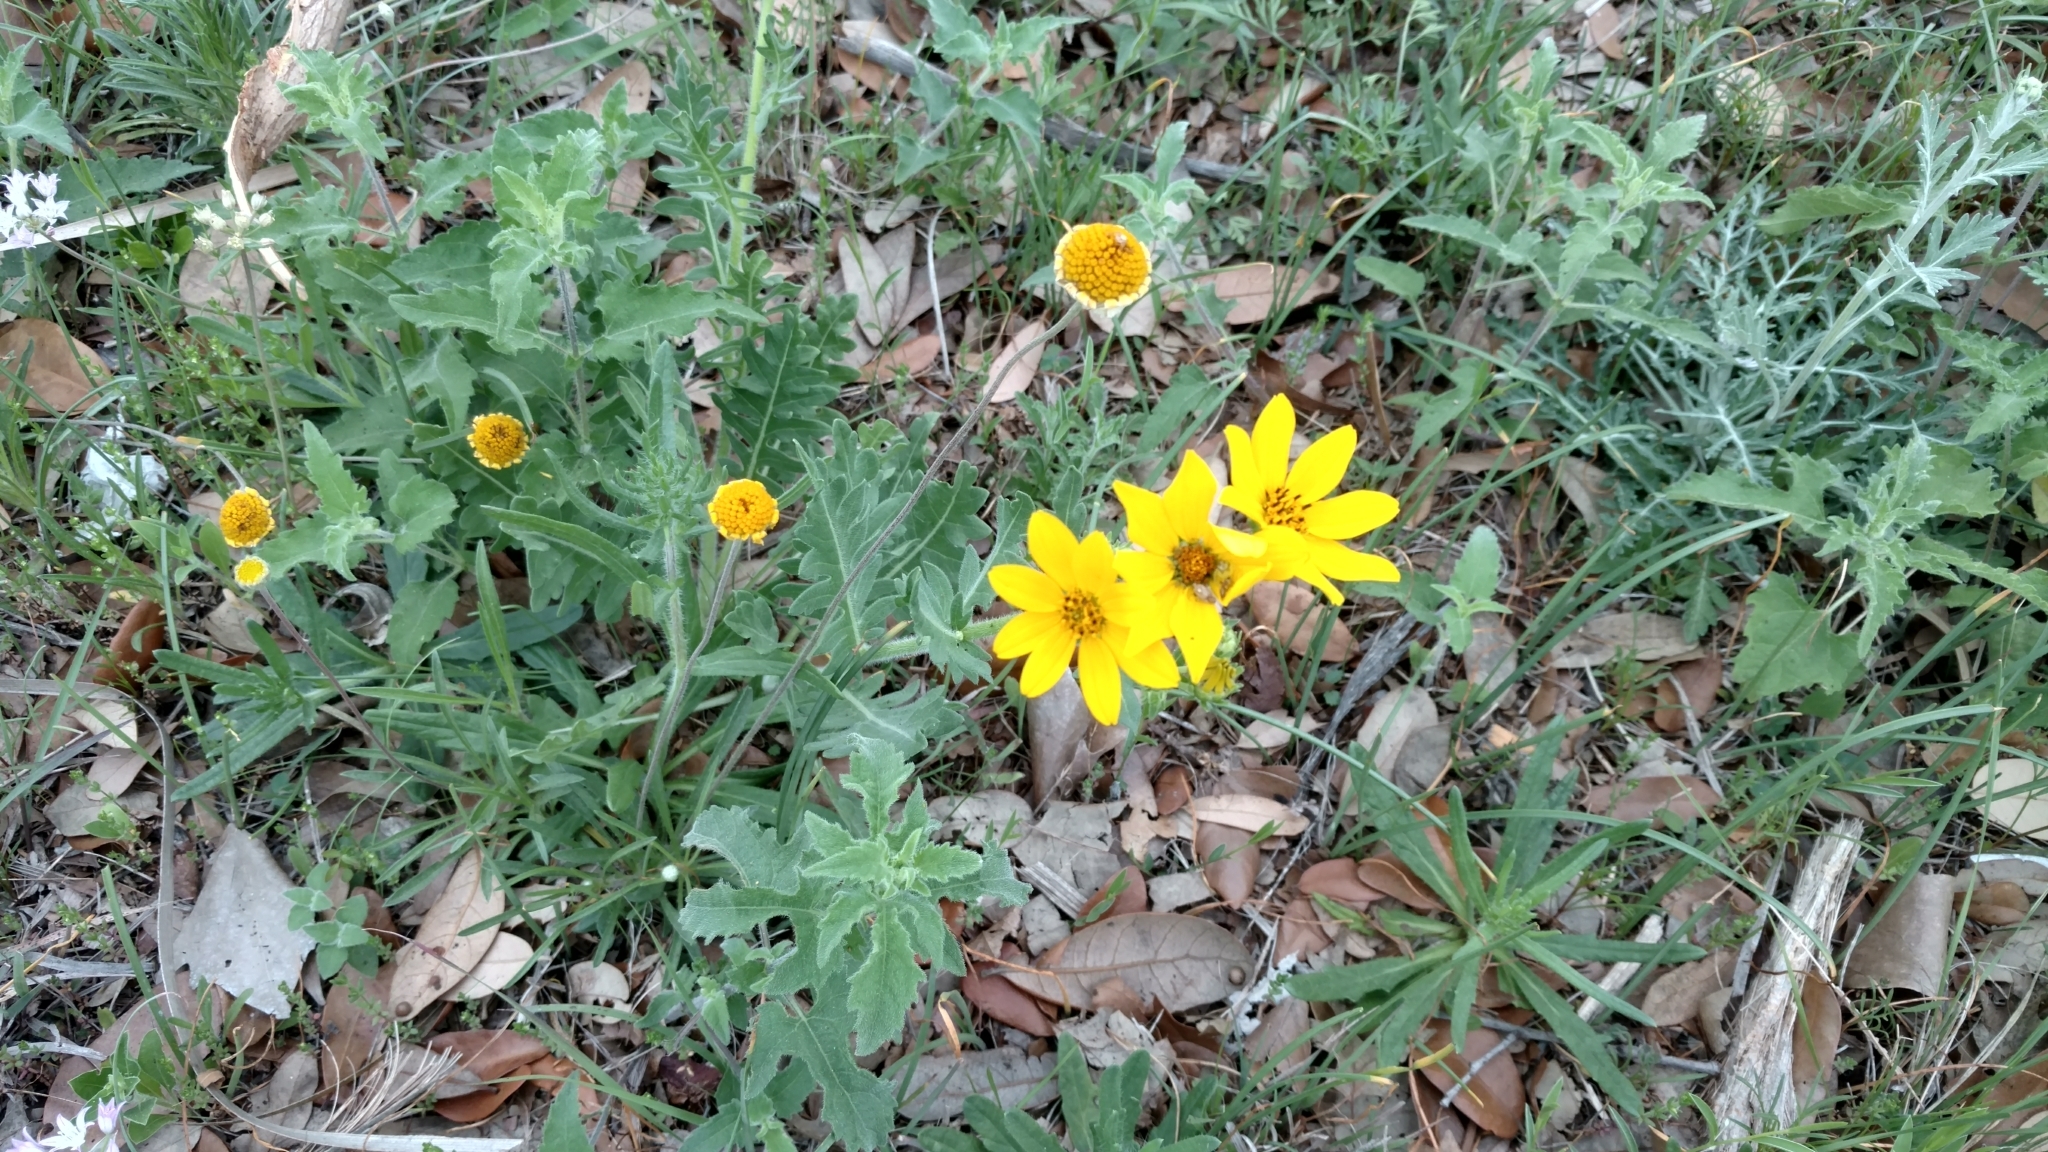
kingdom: Plantae
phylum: Tracheophyta
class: Magnoliopsida
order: Asterales
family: Asteraceae
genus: Engelmannia
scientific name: Engelmannia peristenia
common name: Engelmann's daisy
